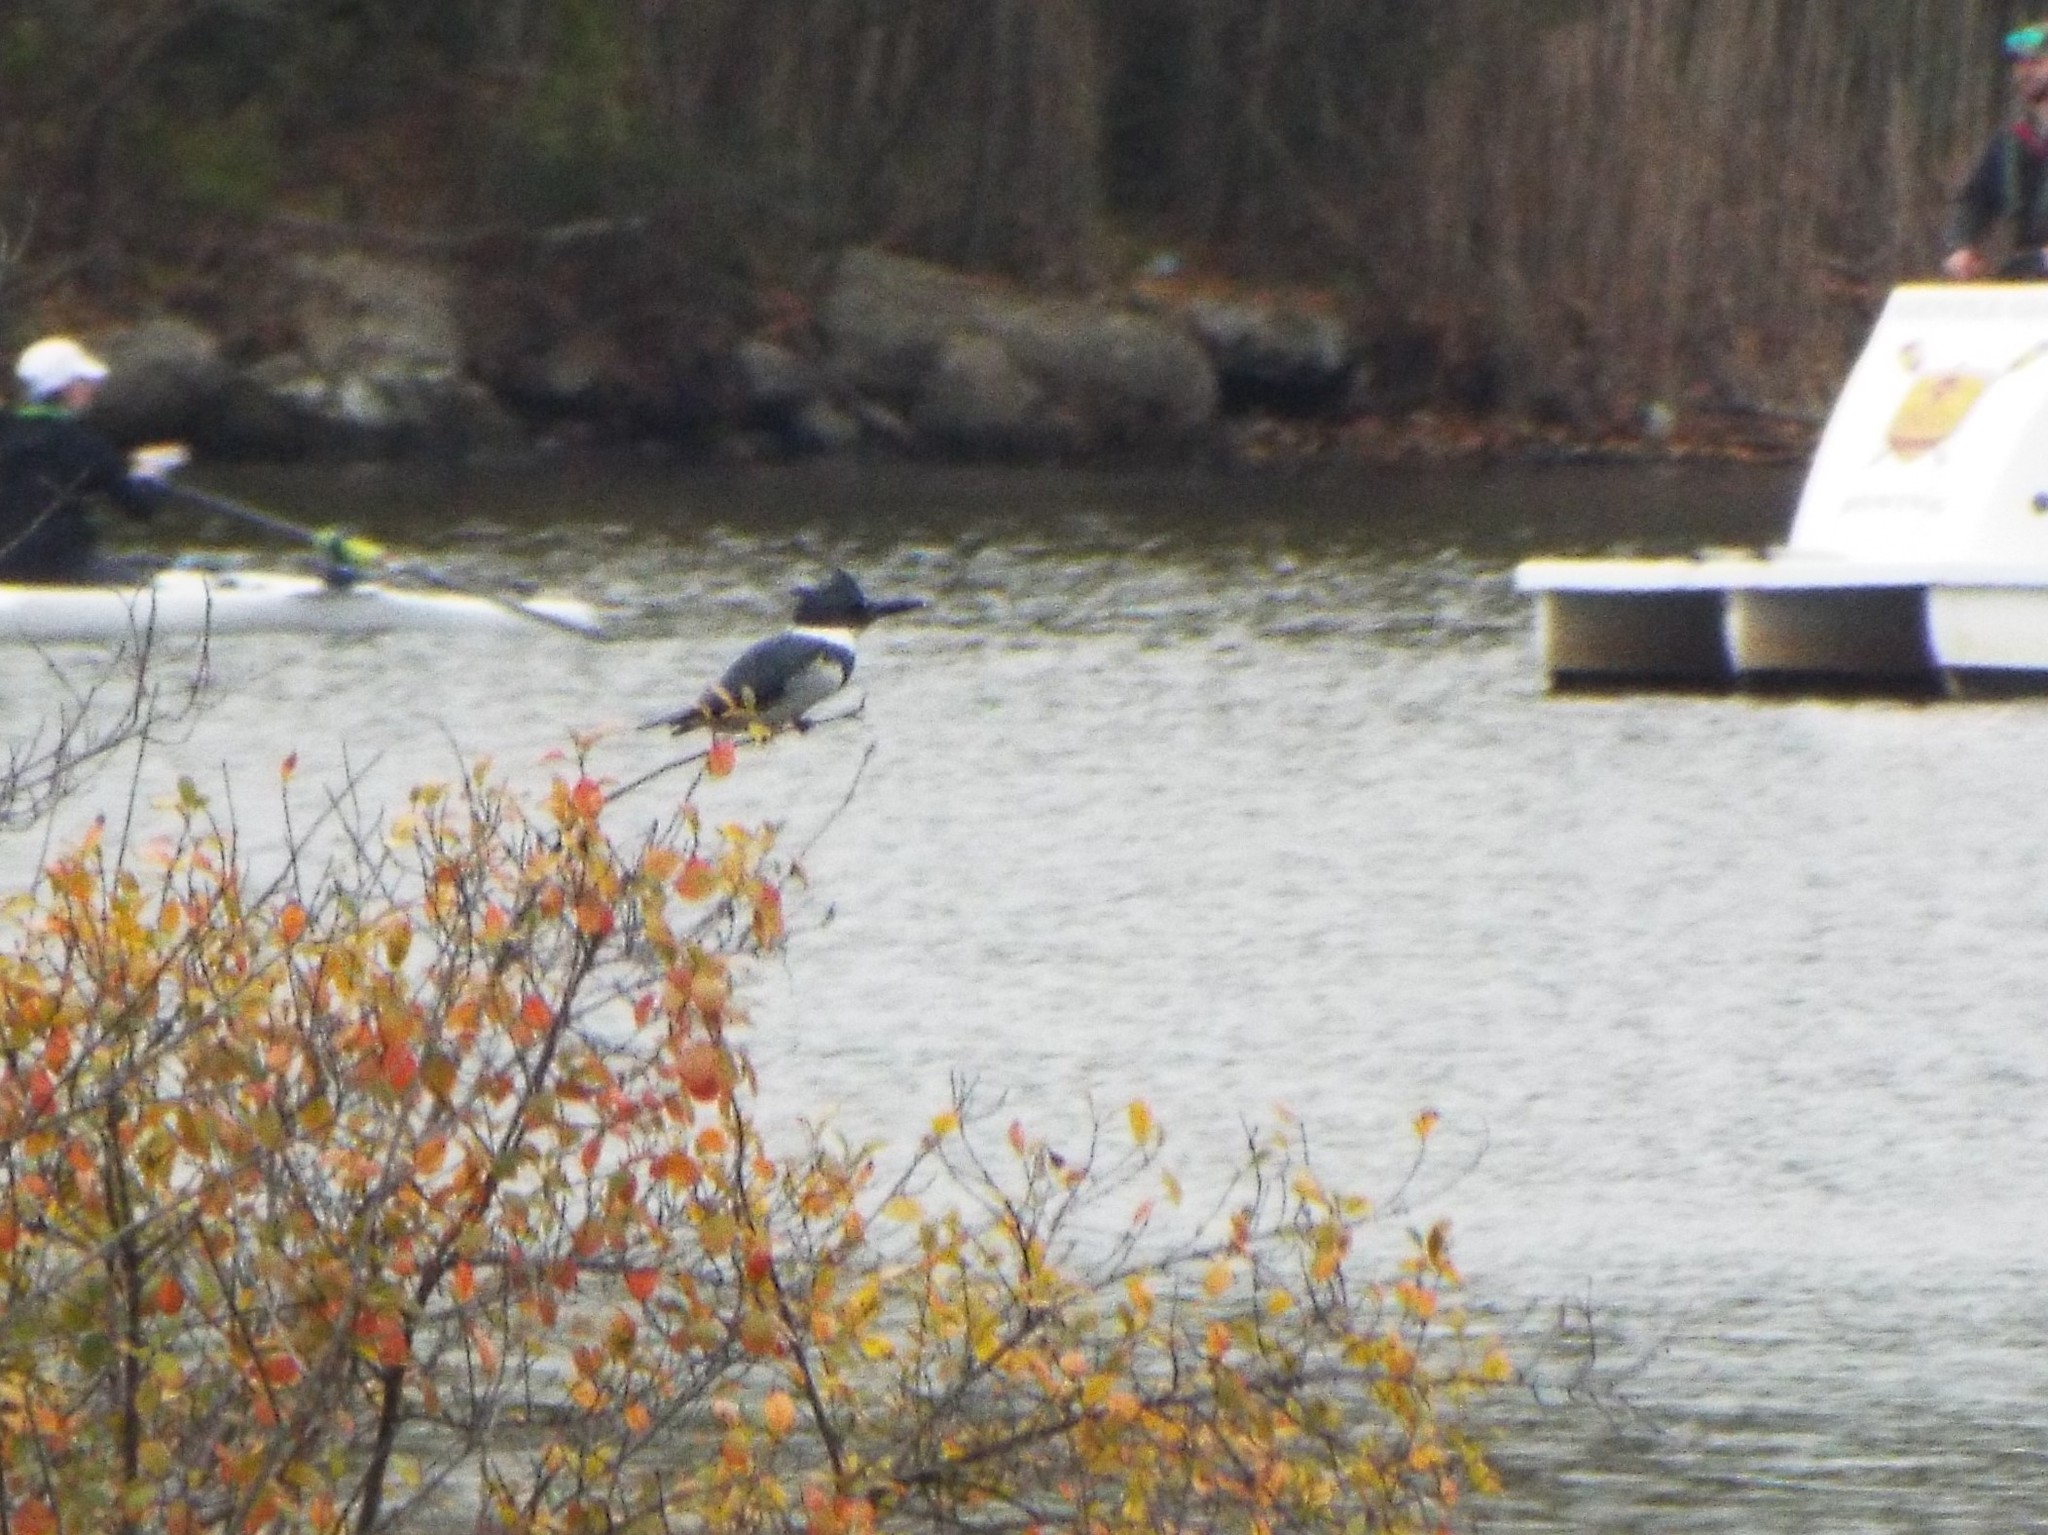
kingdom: Animalia
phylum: Chordata
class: Aves
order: Coraciiformes
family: Alcedinidae
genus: Megaceryle
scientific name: Megaceryle alcyon
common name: Belted kingfisher
